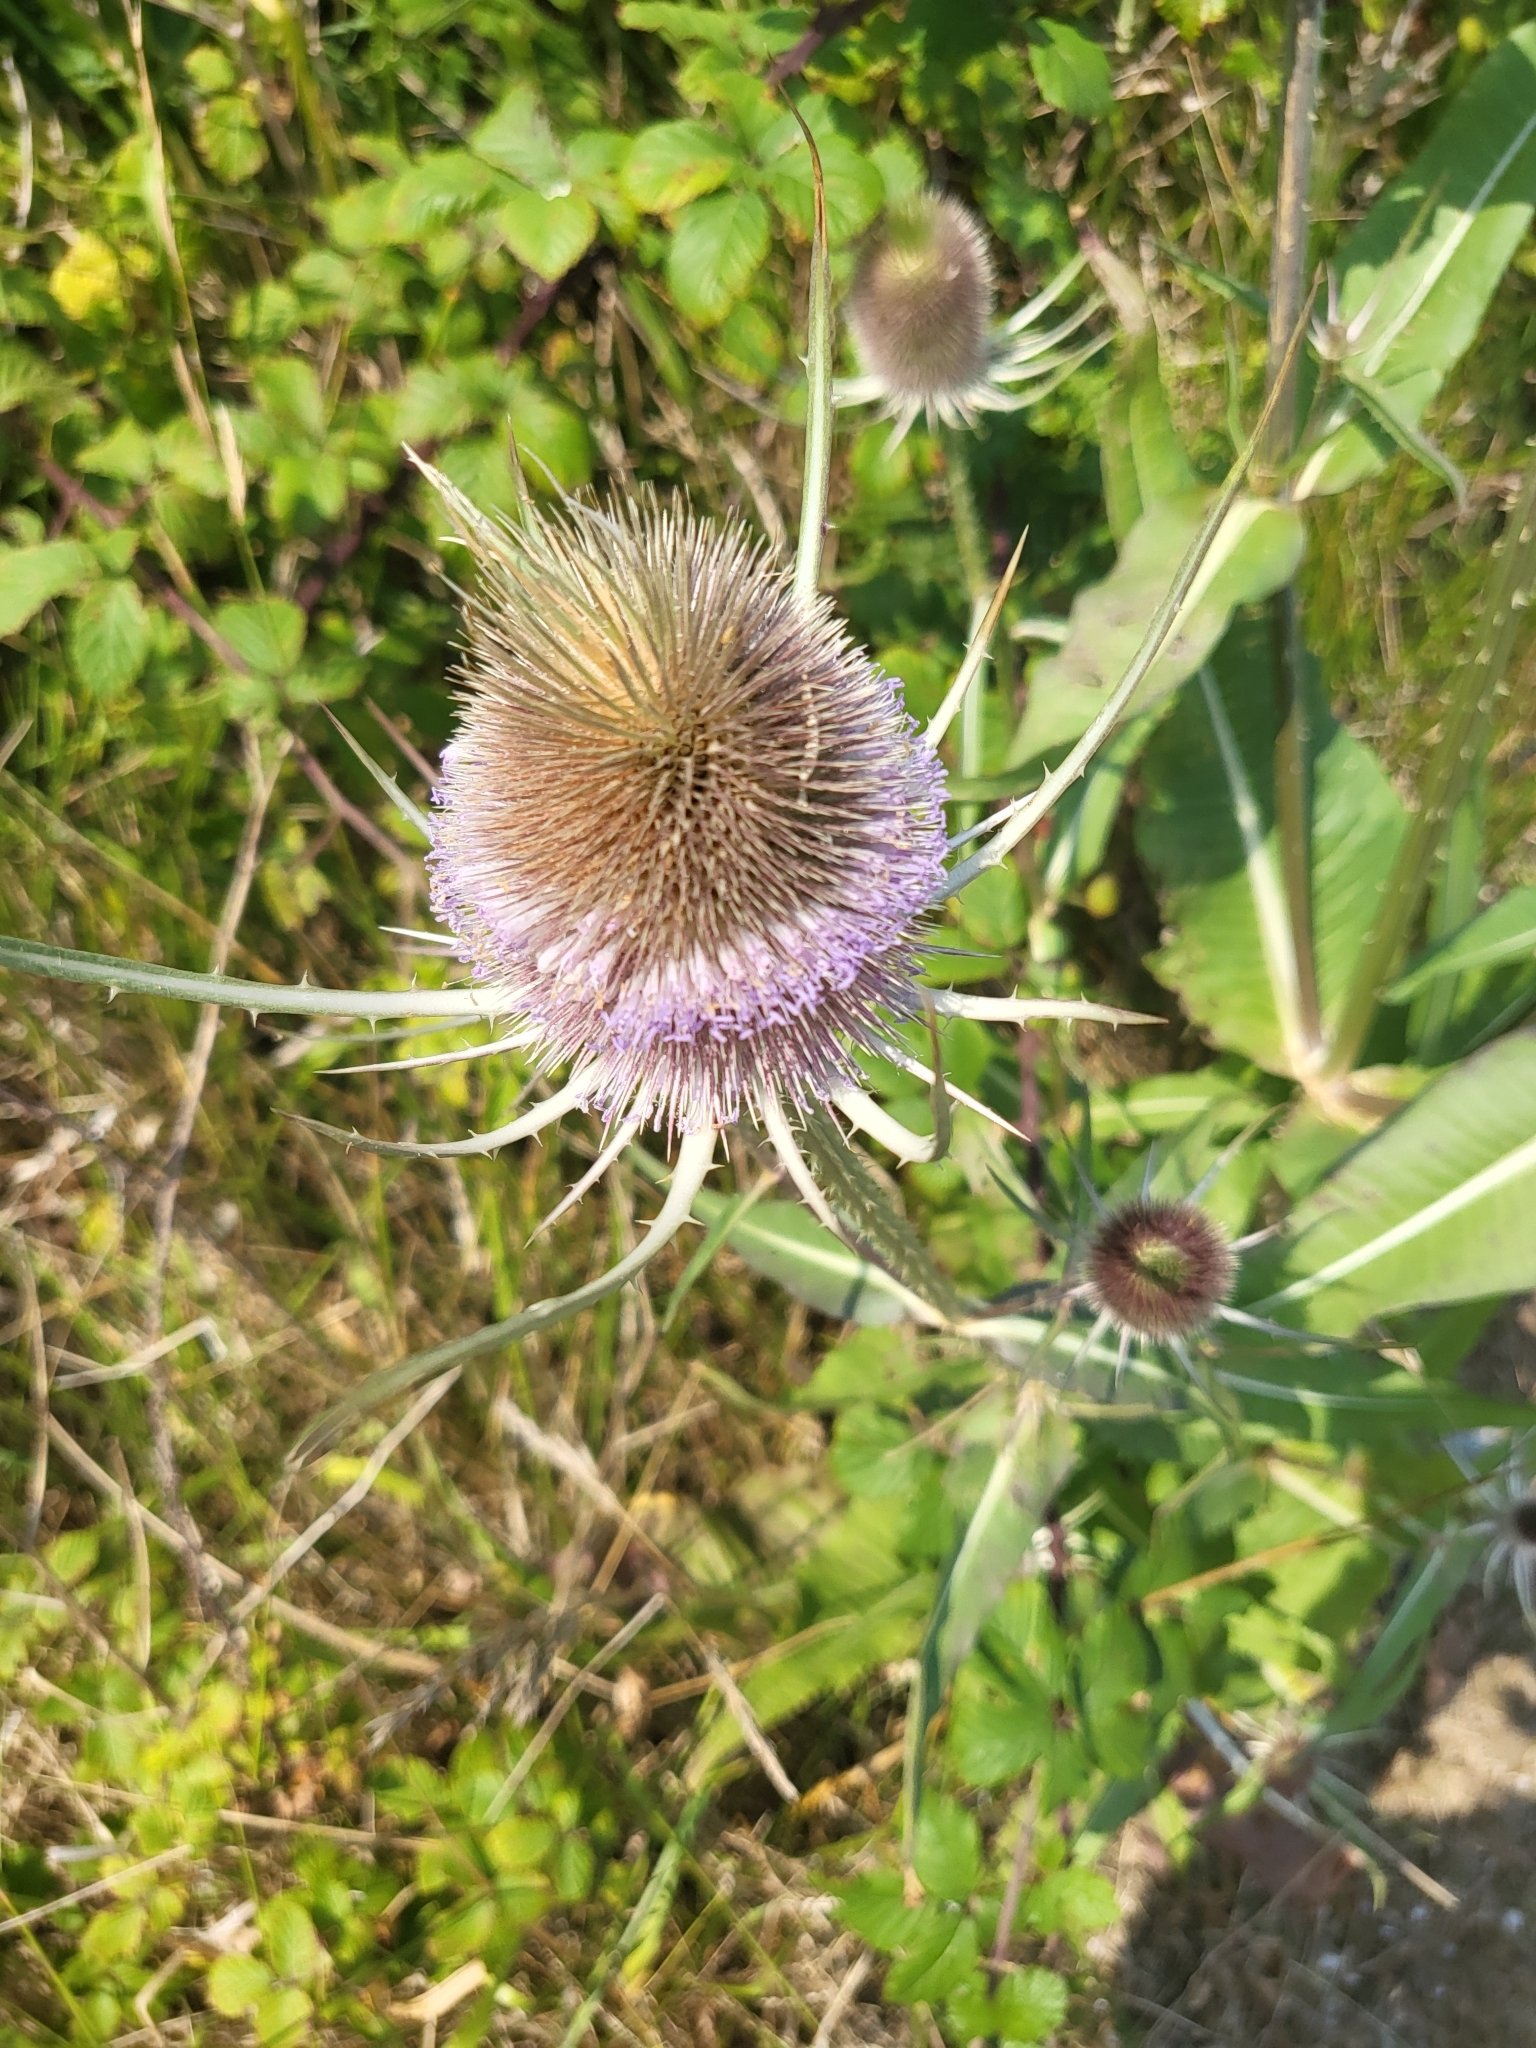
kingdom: Plantae
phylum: Tracheophyta
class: Magnoliopsida
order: Dipsacales
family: Caprifoliaceae
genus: Dipsacus
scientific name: Dipsacus fullonum
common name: Teasel
